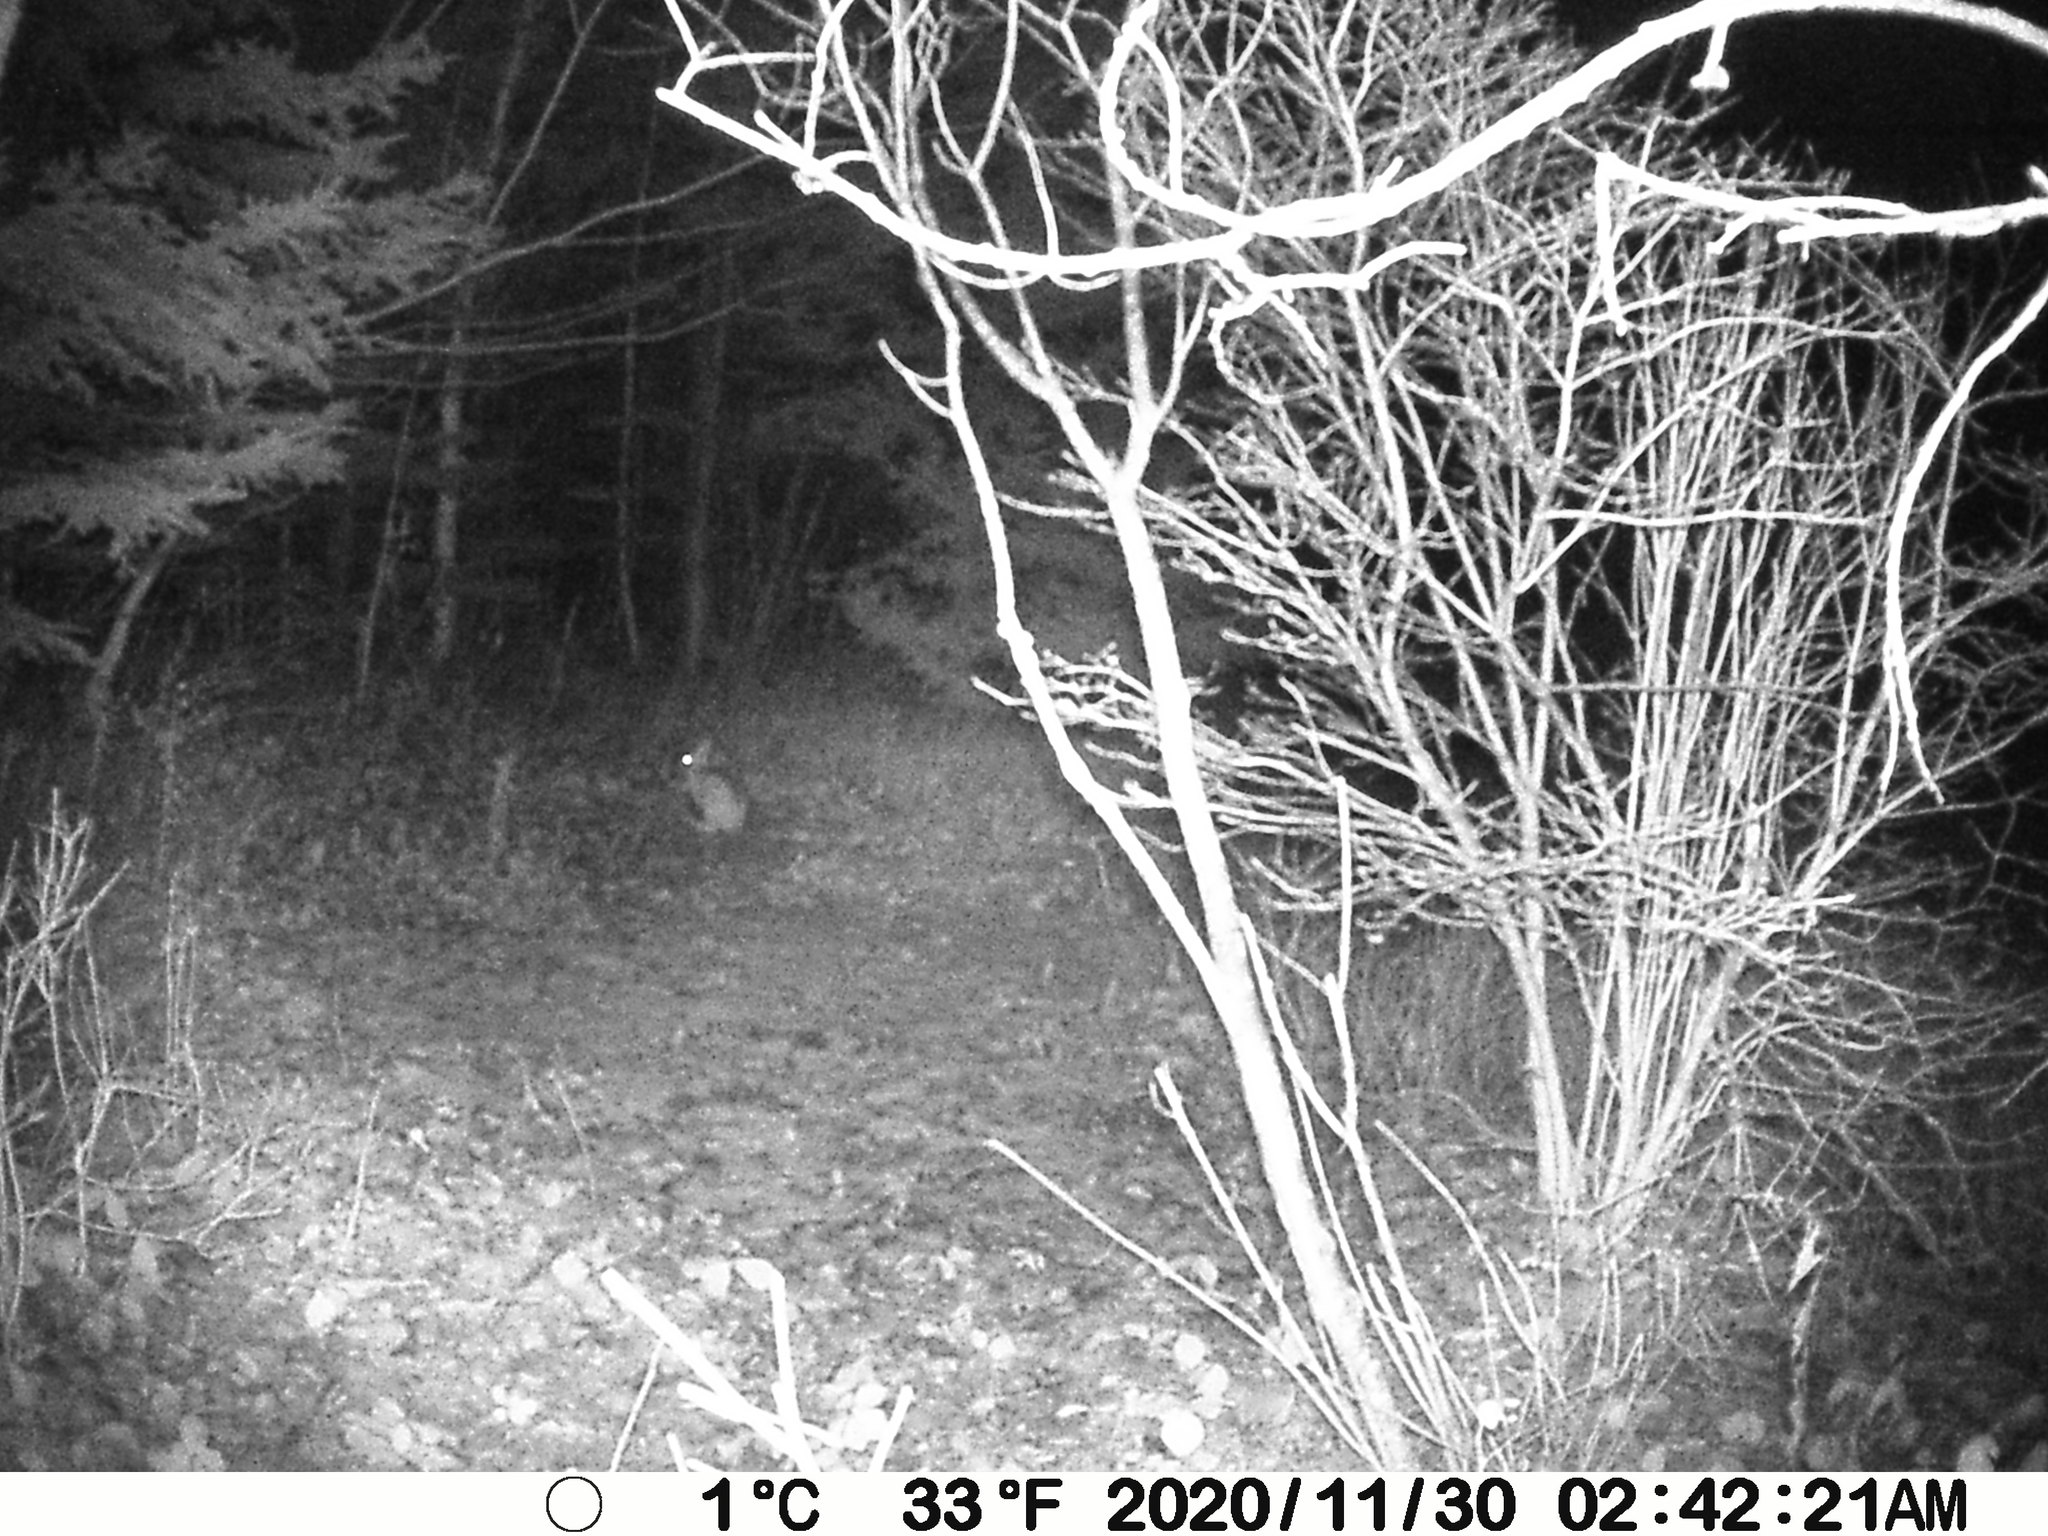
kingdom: Animalia
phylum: Chordata
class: Mammalia
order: Lagomorpha
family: Leporidae
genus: Lepus
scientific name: Lepus americanus
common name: Snowshoe hare
